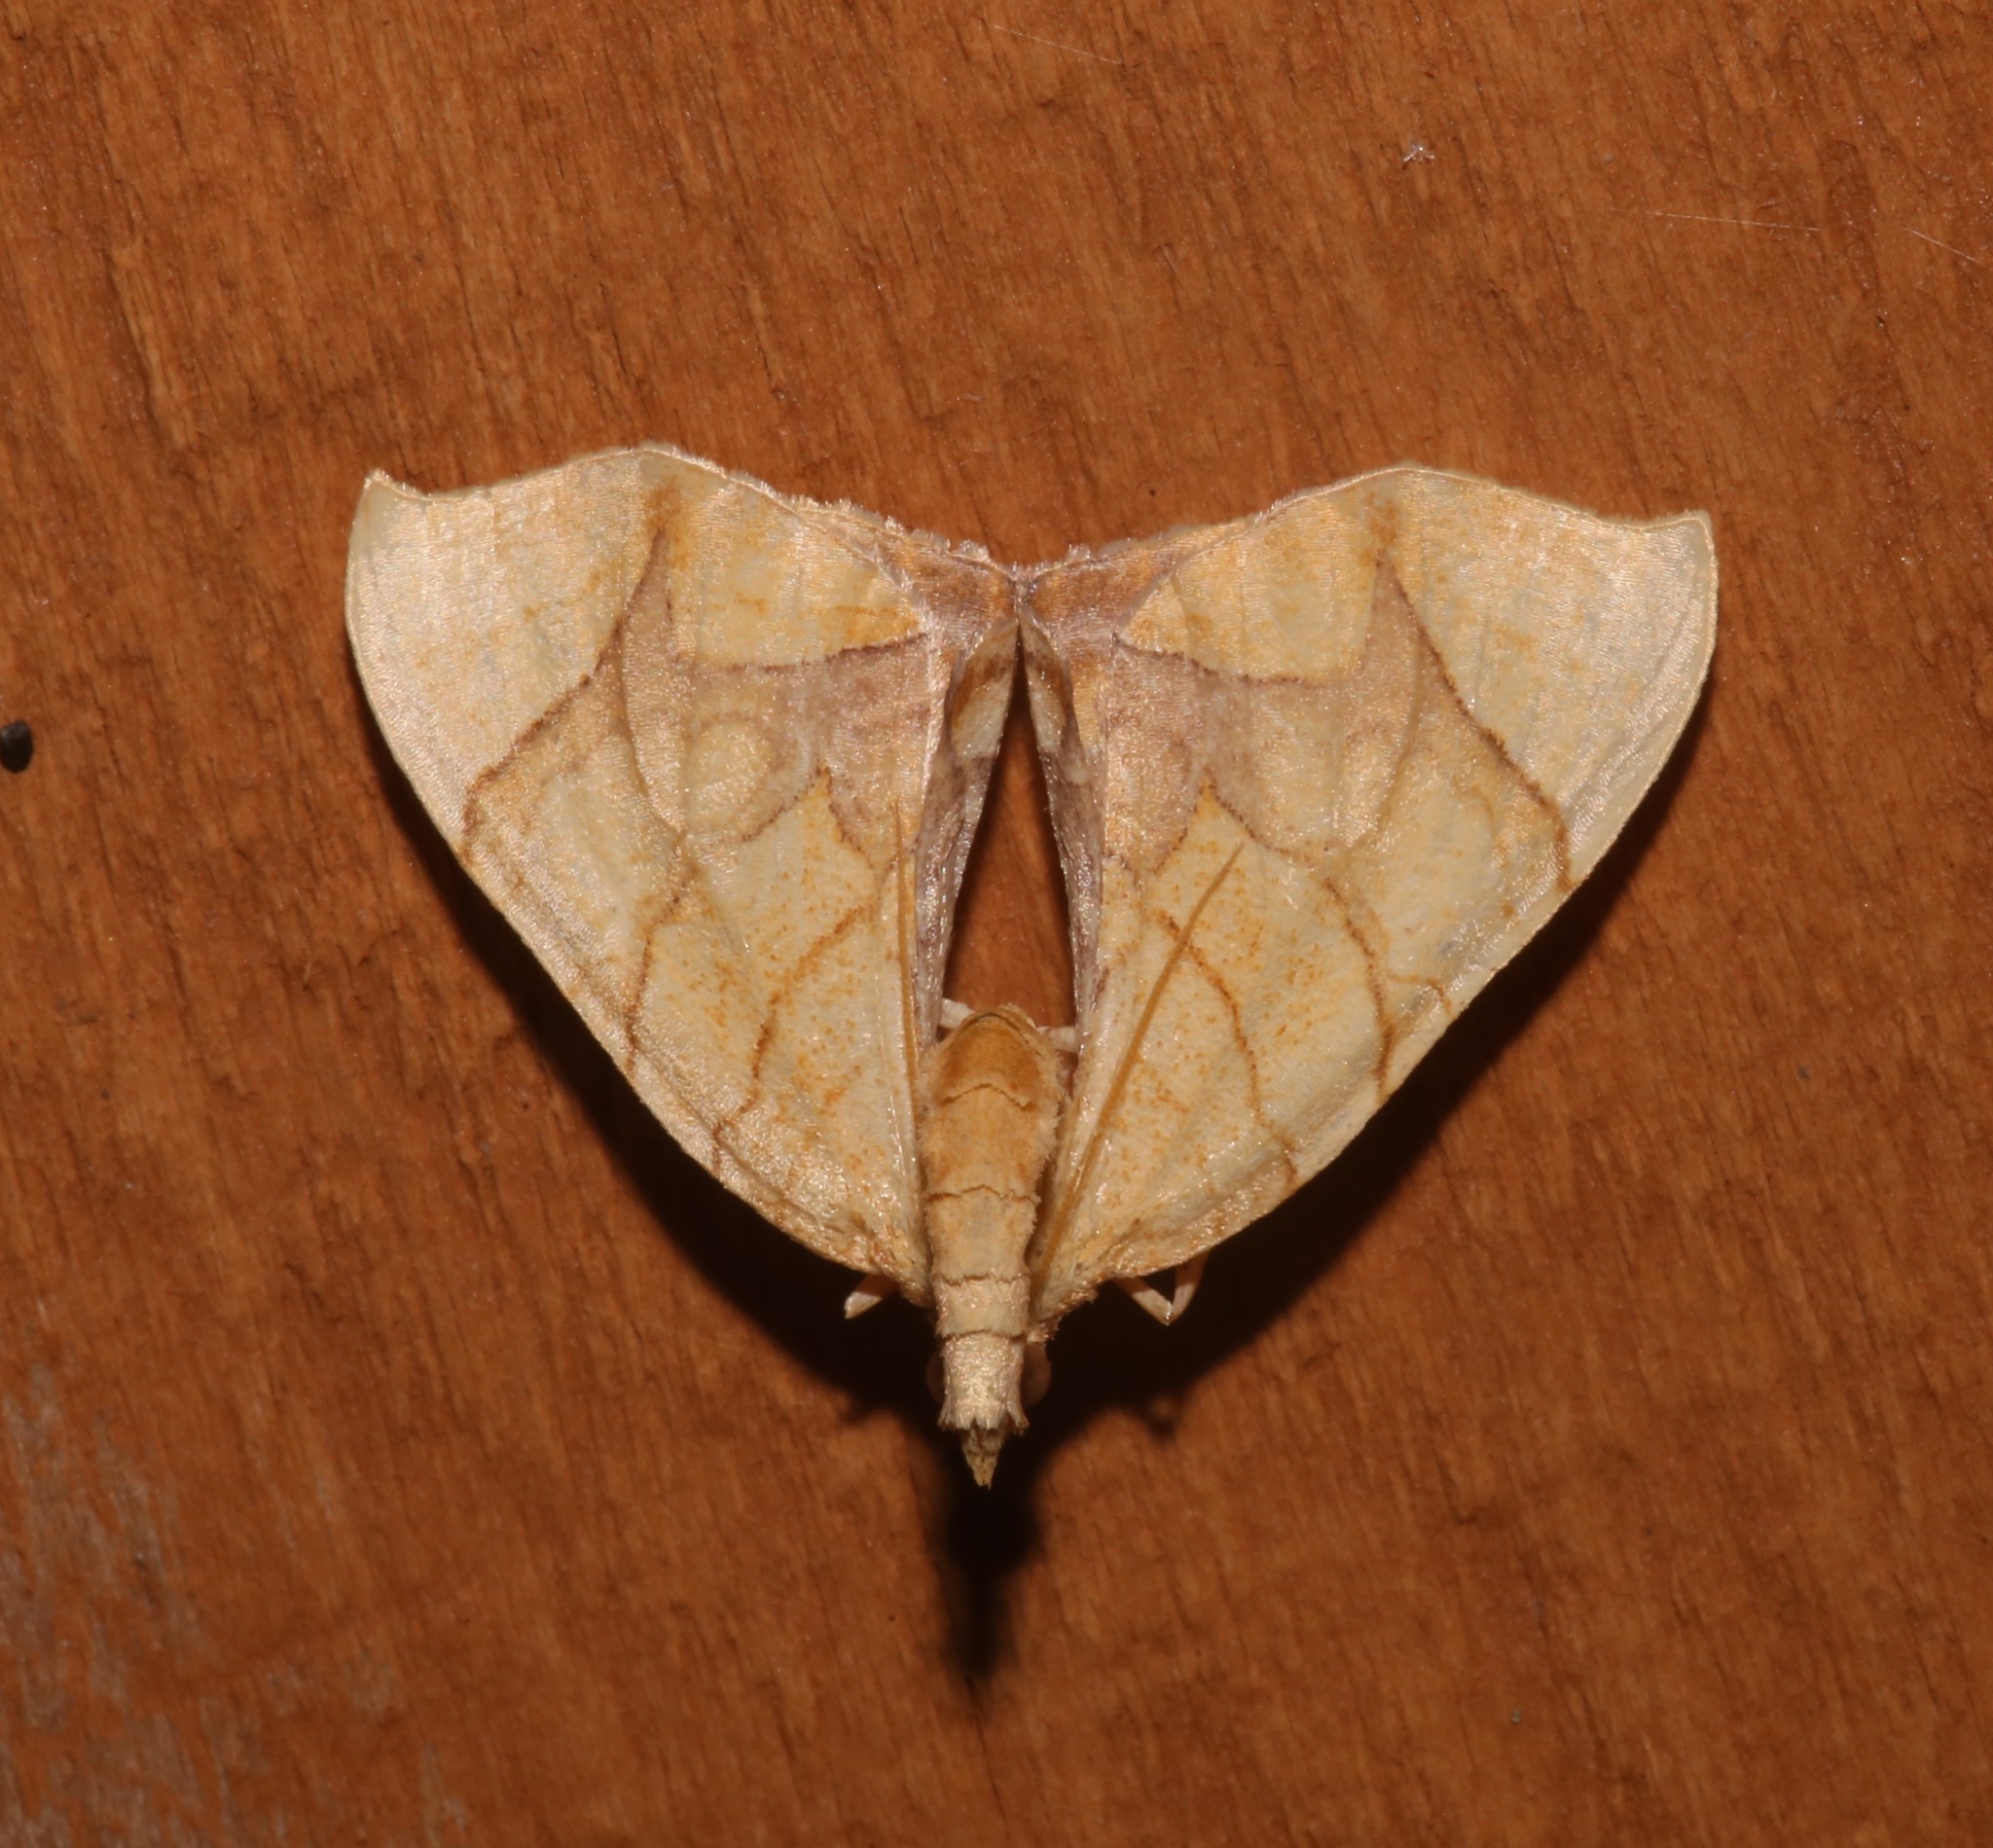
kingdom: Animalia
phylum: Arthropoda
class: Insecta
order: Lepidoptera
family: Geometridae
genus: Eulithis
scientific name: Eulithis
